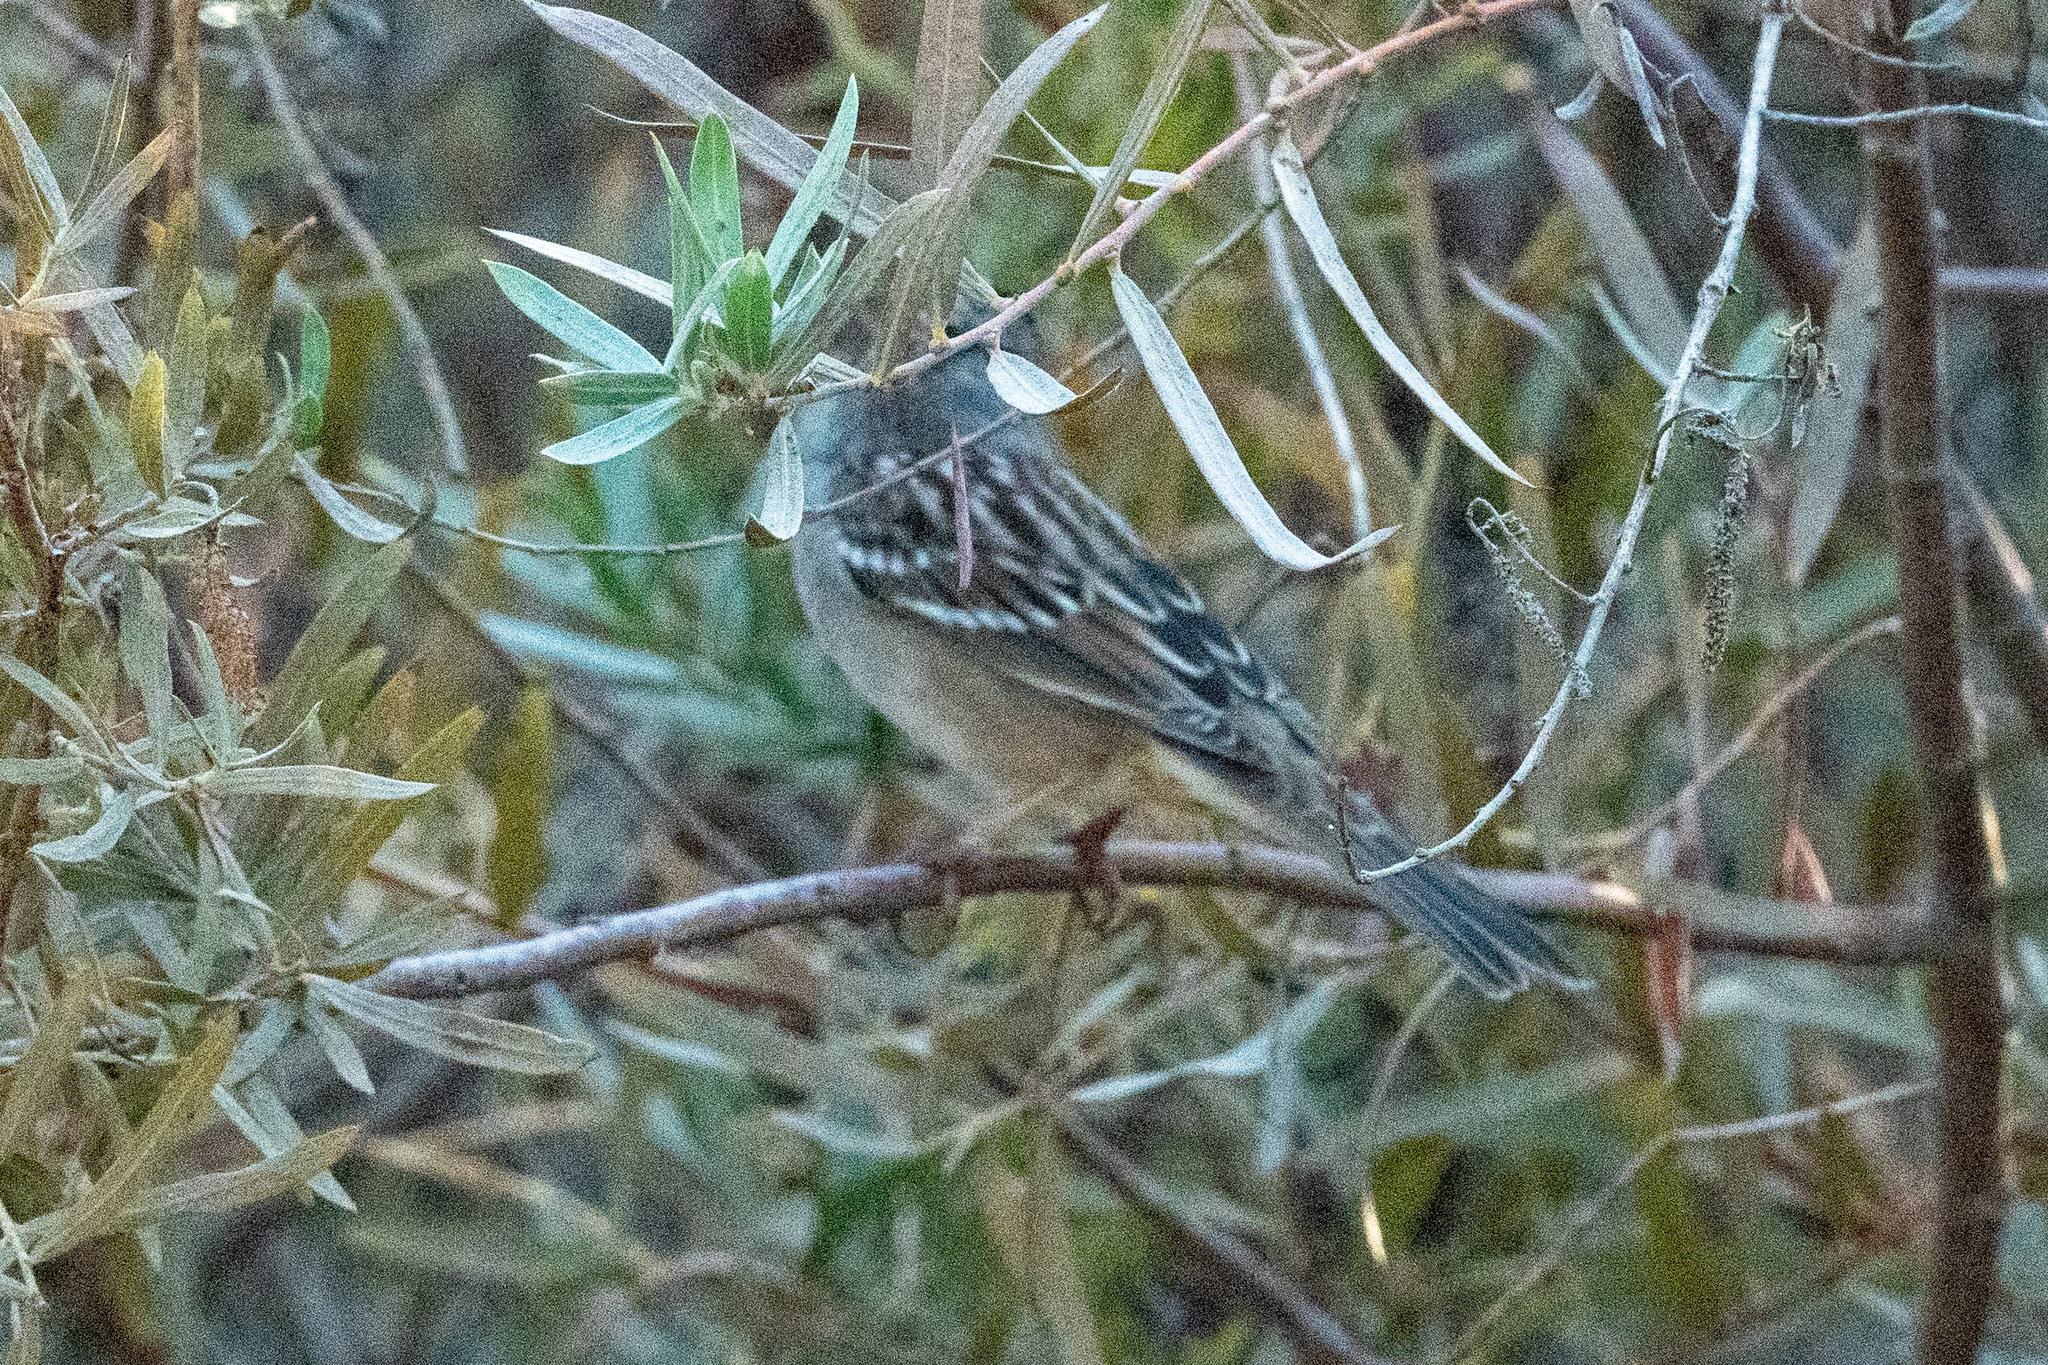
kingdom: Animalia
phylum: Chordata
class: Aves
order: Passeriformes
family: Passerellidae
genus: Zonotrichia
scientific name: Zonotrichia leucophrys
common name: White-crowned sparrow
